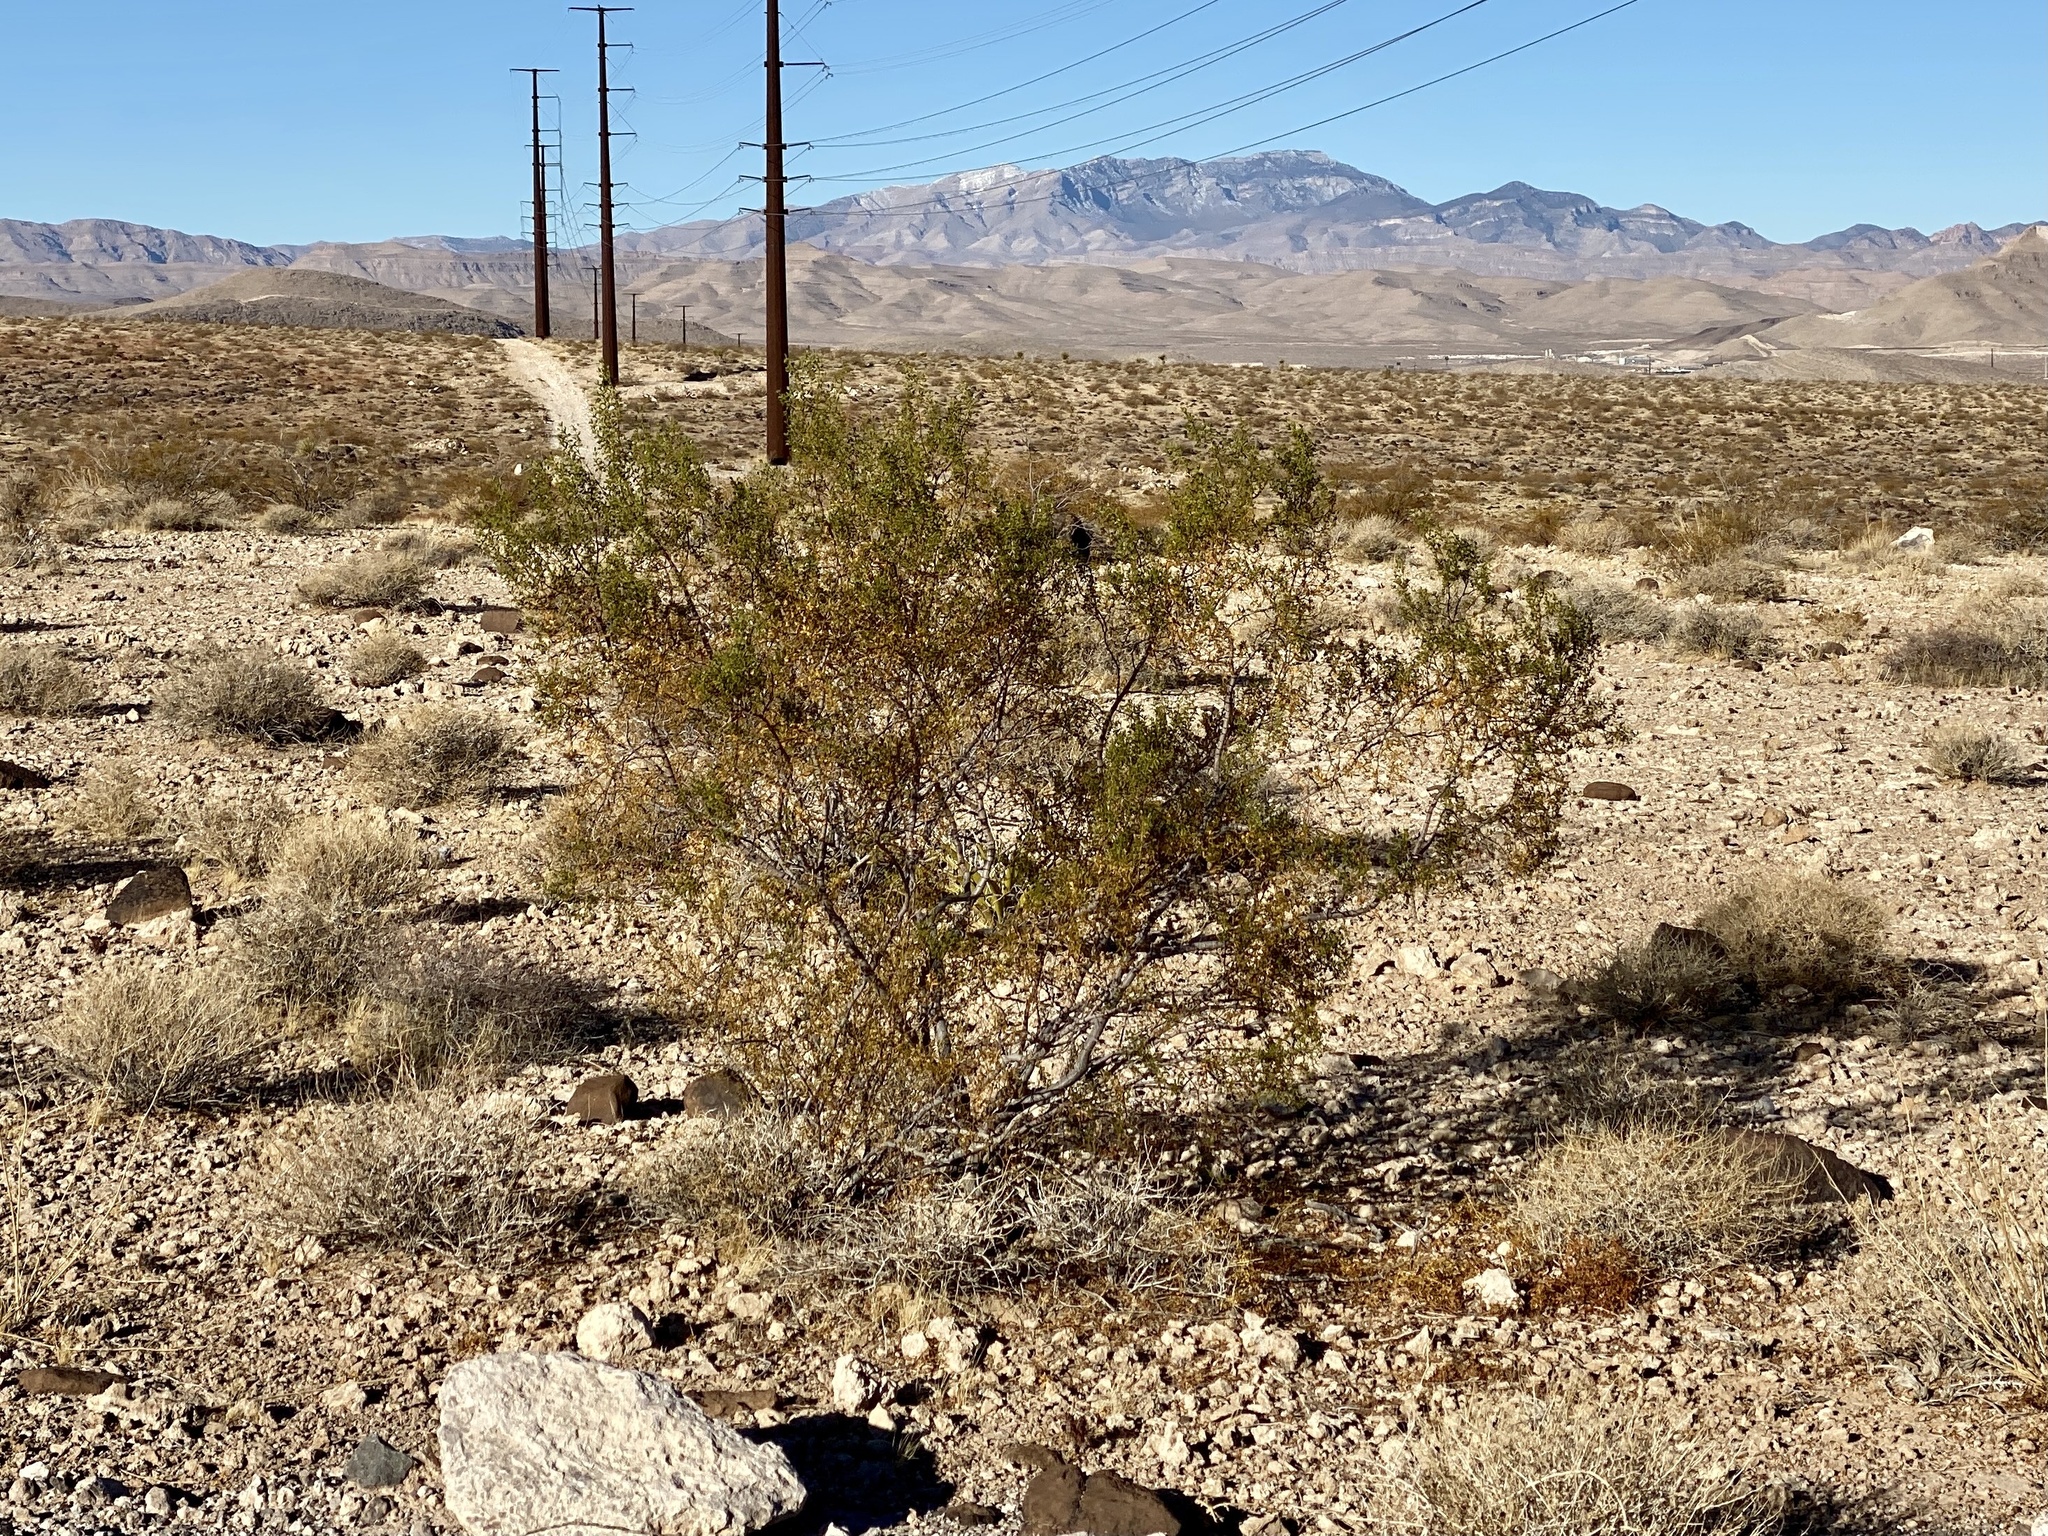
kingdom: Plantae
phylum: Tracheophyta
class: Magnoliopsida
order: Zygophyllales
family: Zygophyllaceae
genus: Larrea
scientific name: Larrea tridentata
